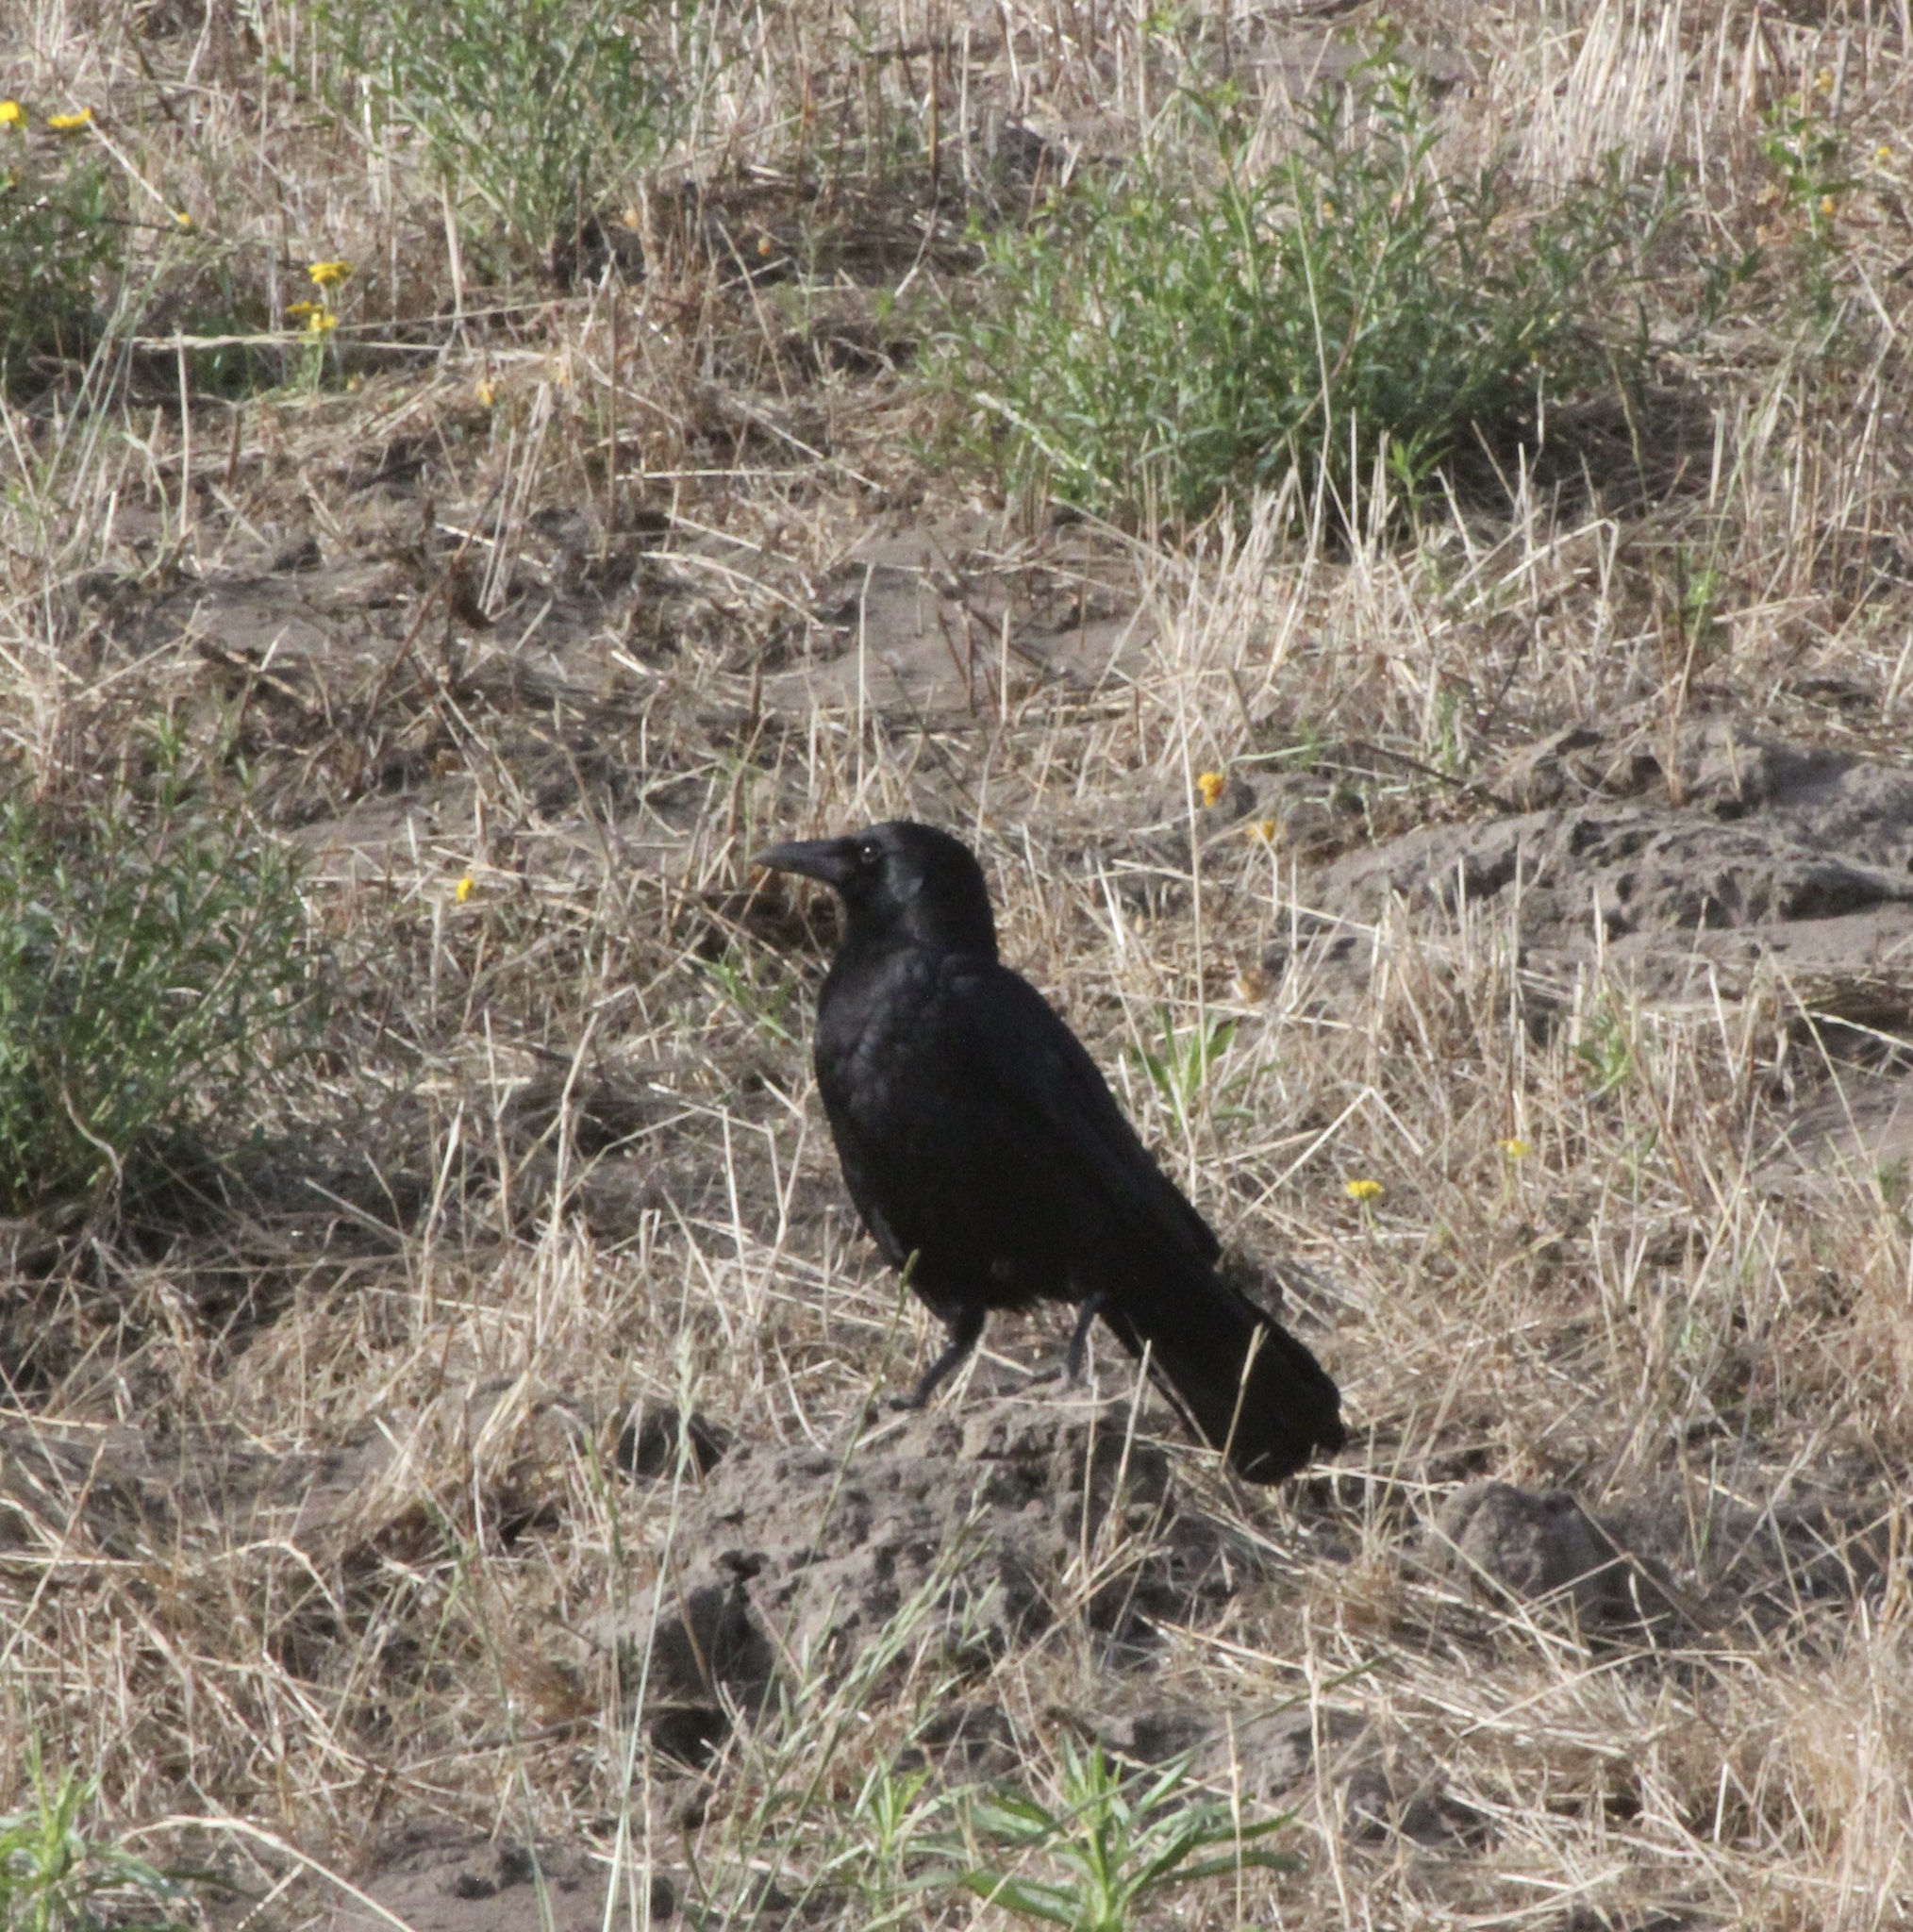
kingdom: Animalia
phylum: Chordata
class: Aves
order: Passeriformes
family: Corvidae
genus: Corvus
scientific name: Corvus brachyrhynchos
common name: American crow
